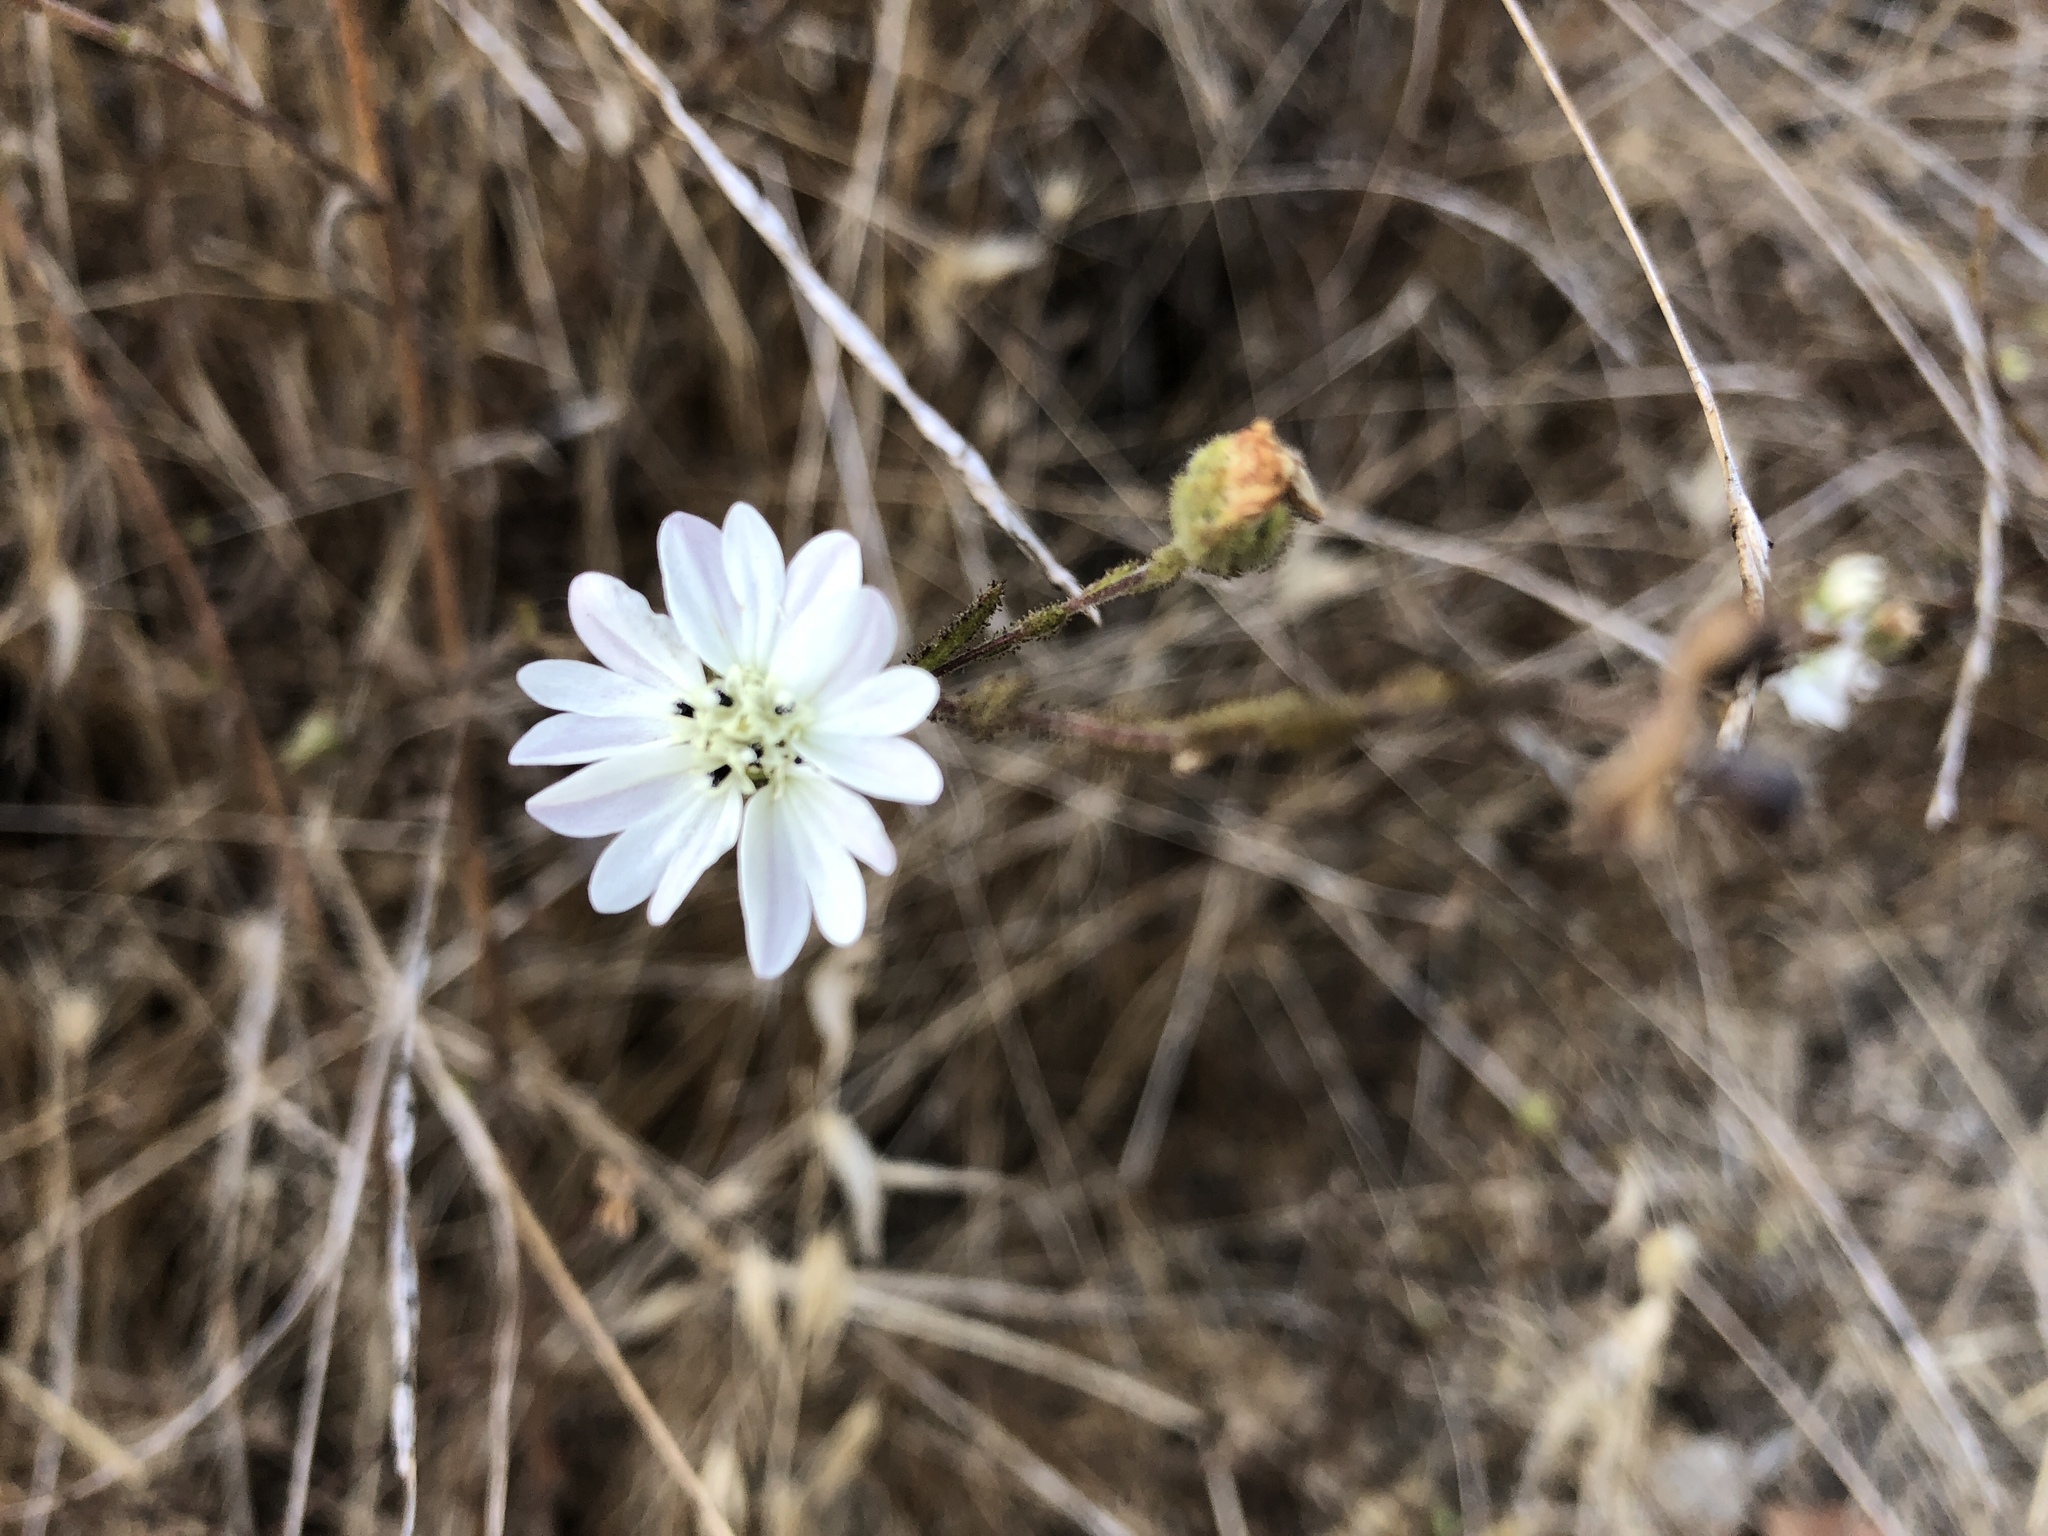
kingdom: Plantae
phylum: Tracheophyta
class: Magnoliopsida
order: Asterales
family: Asteraceae
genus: Hemizonia
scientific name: Hemizonia congesta
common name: Hayfield tarweed
